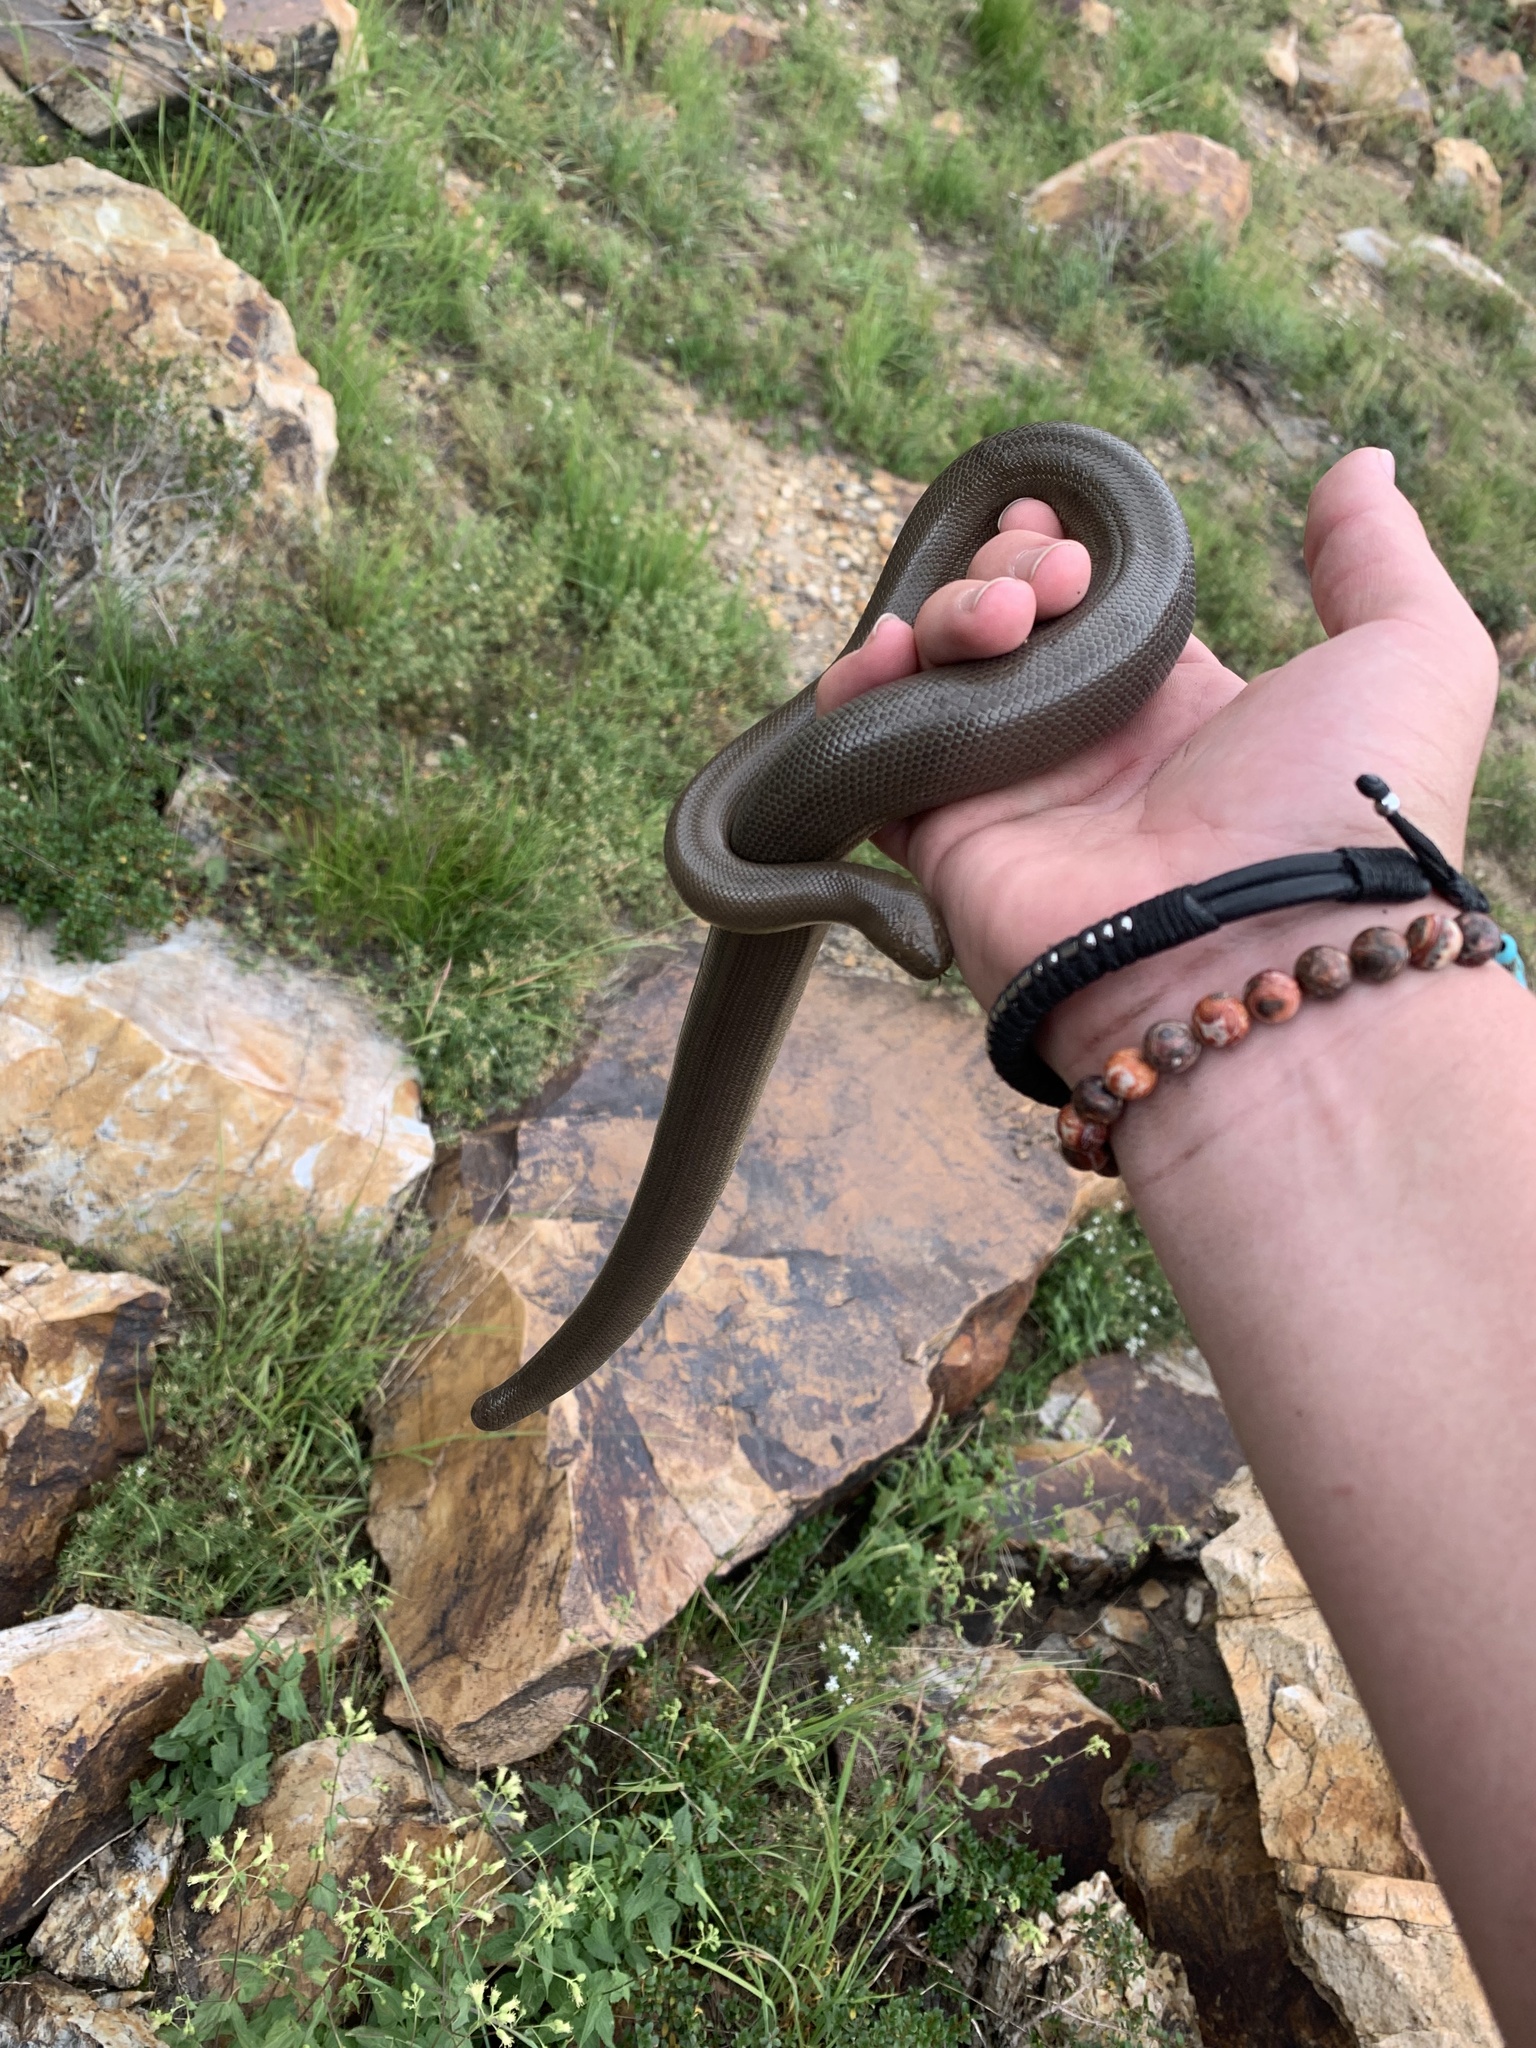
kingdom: Animalia
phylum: Chordata
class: Squamata
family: Boidae
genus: Charina
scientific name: Charina bottae
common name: Northern rubber boa
